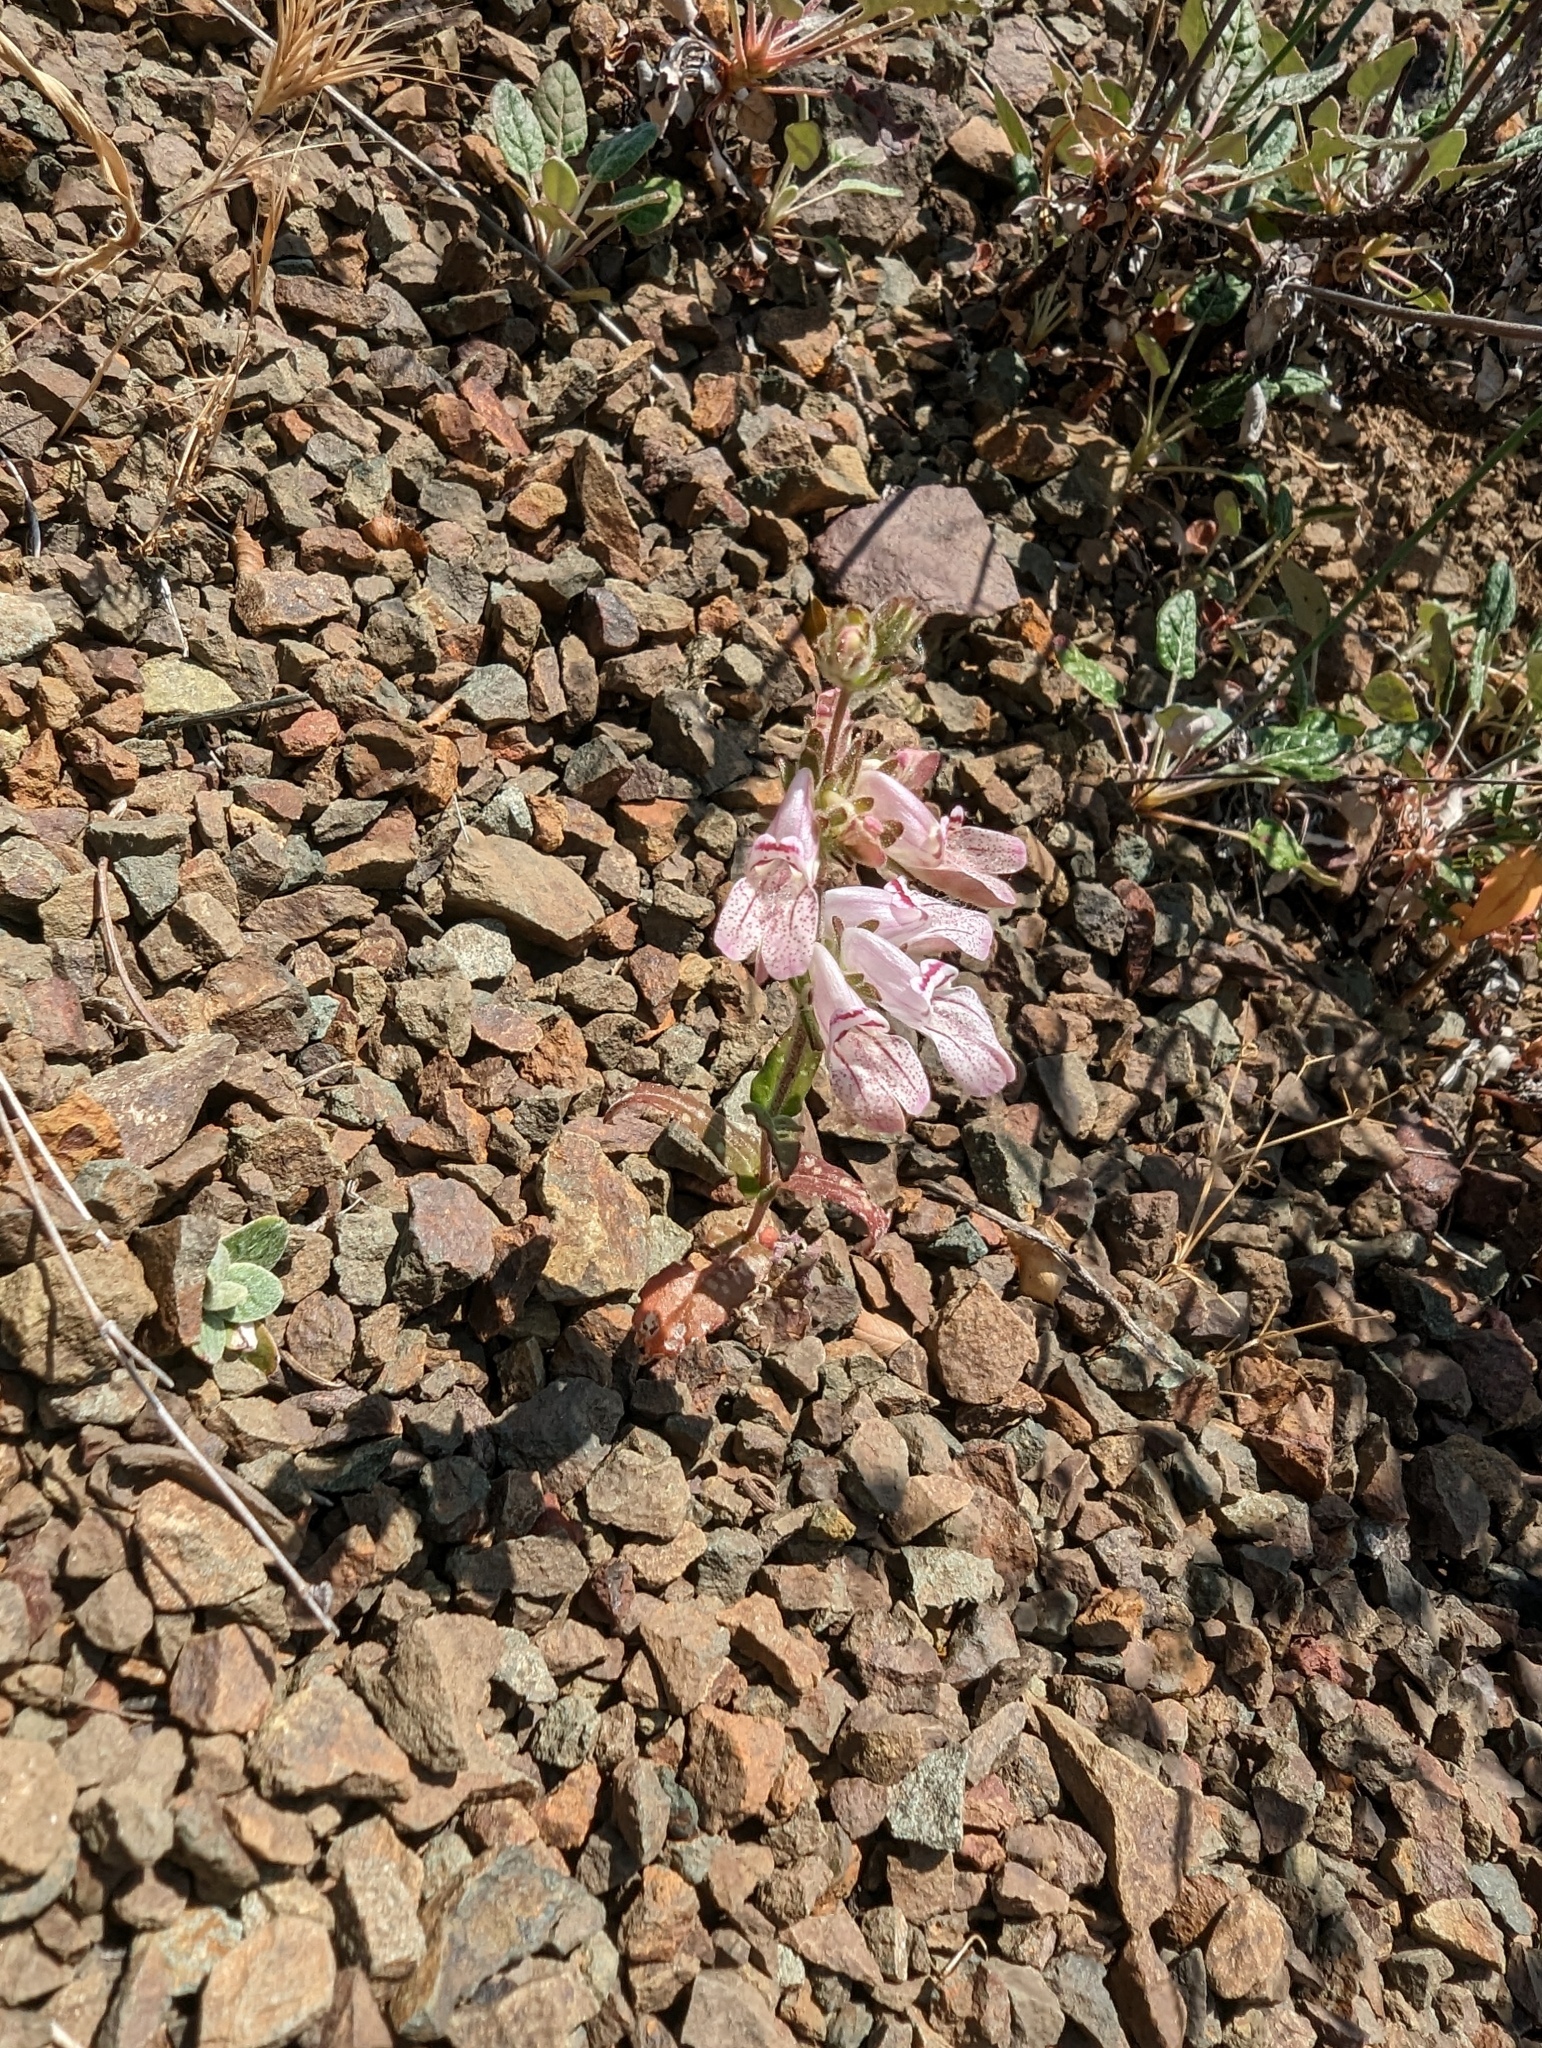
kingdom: Plantae
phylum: Tracheophyta
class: Magnoliopsida
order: Lamiales
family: Plantaginaceae
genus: Collinsia
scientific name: Collinsia tinctoria
